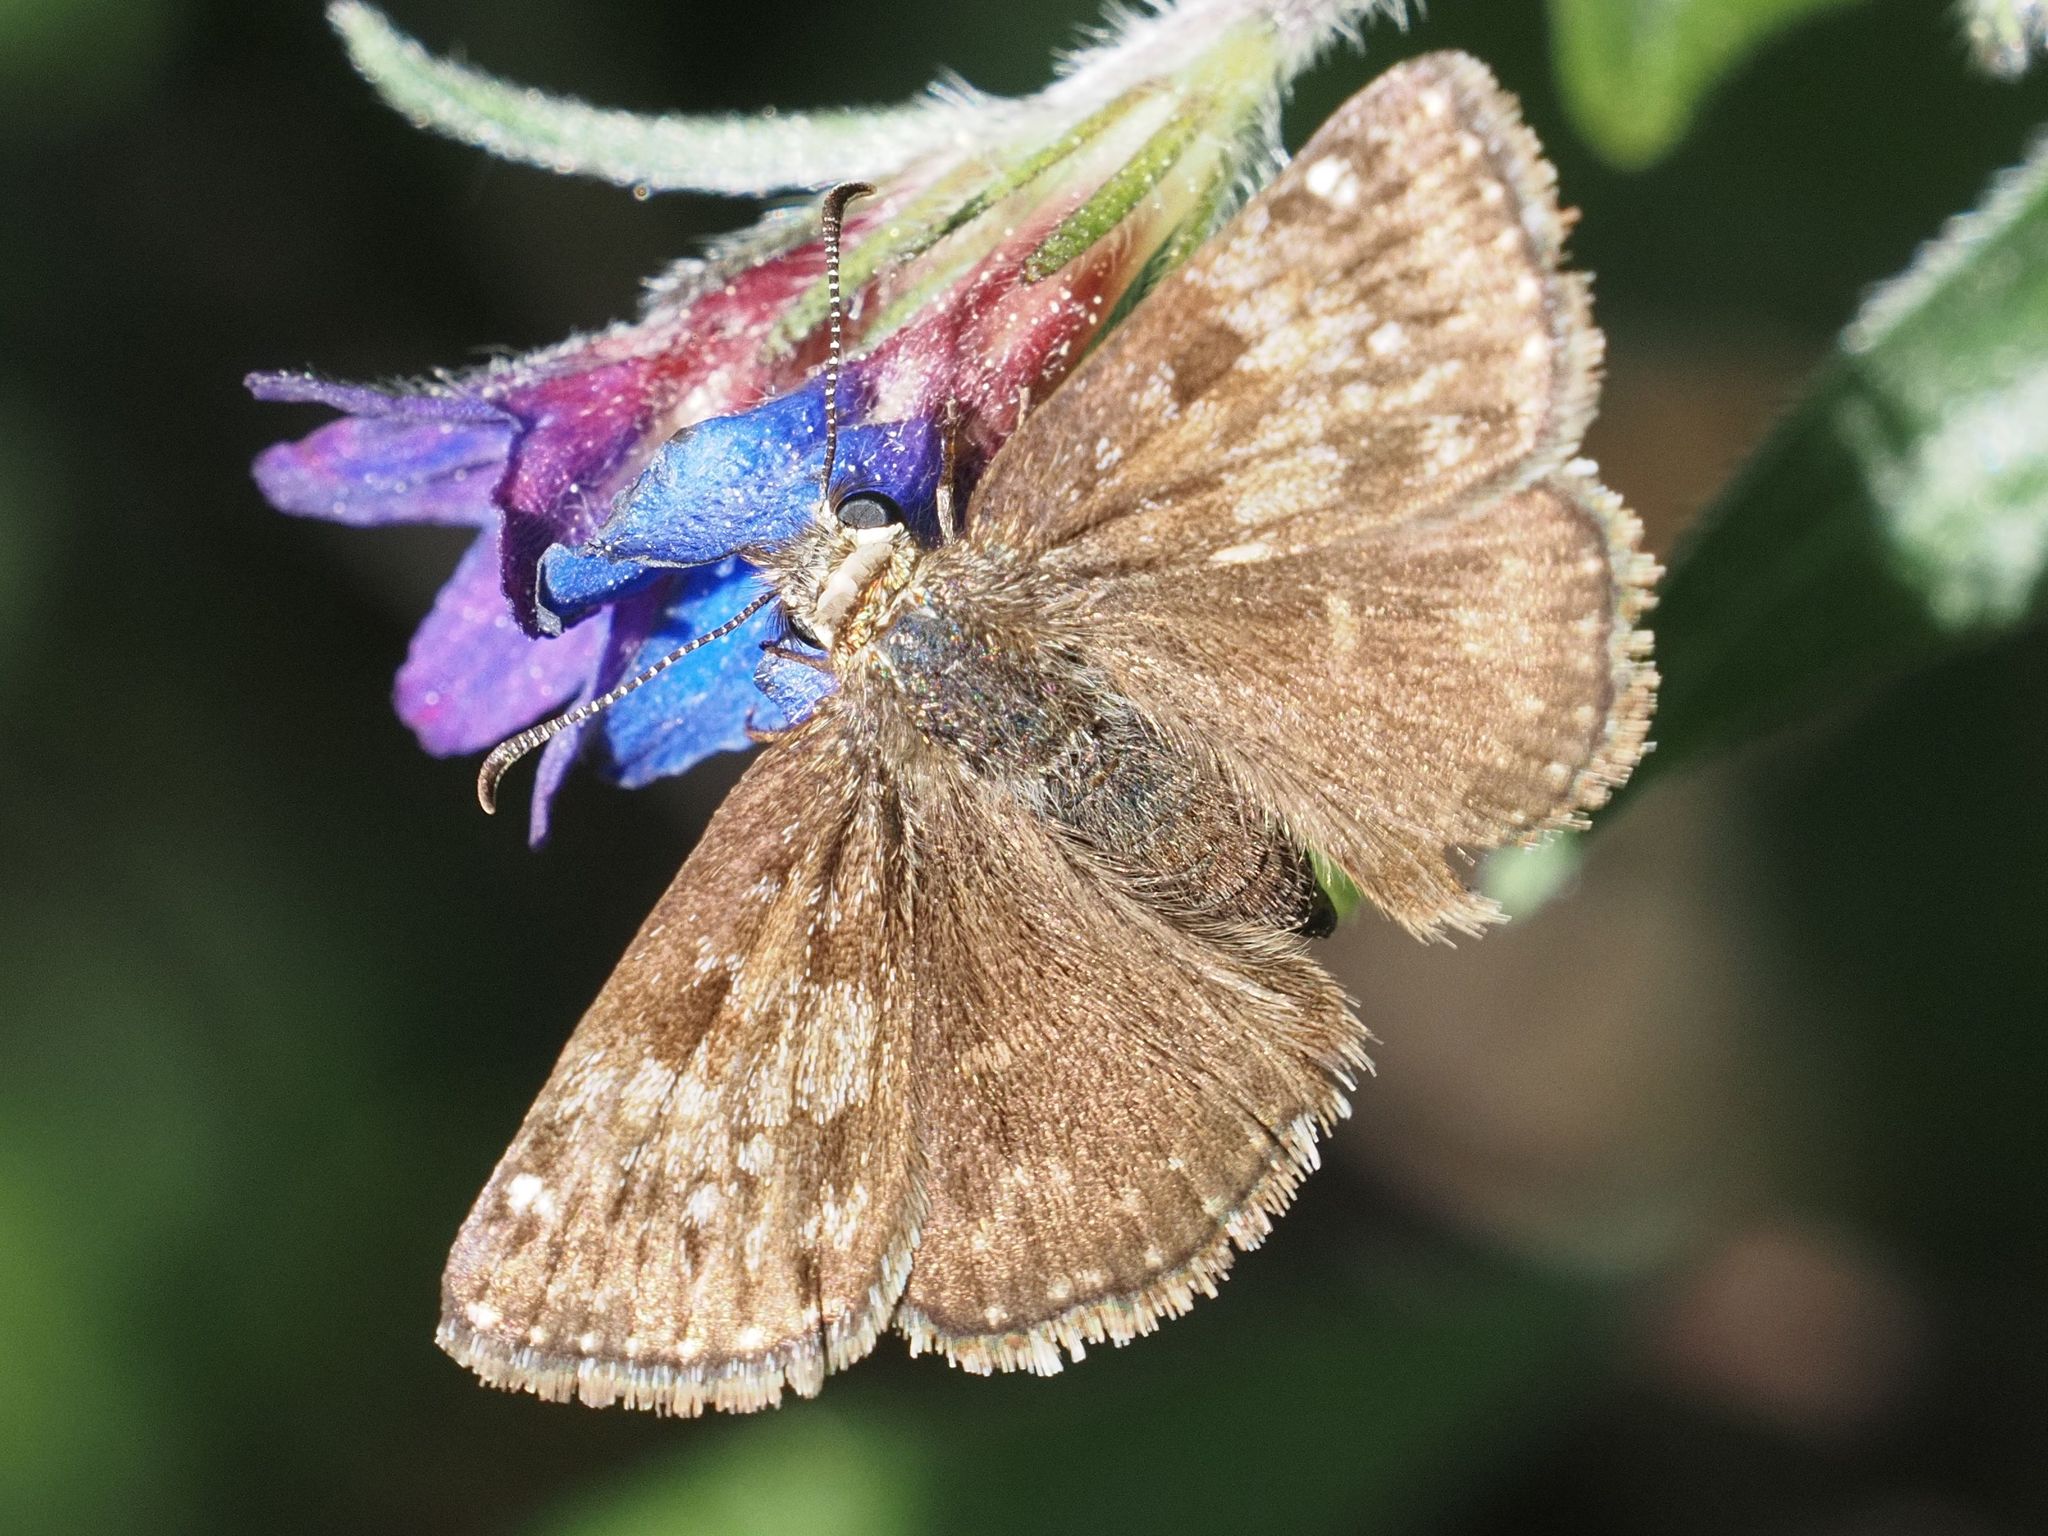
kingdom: Animalia
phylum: Arthropoda
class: Insecta
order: Lepidoptera
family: Hesperiidae
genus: Erynnis
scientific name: Erynnis tages
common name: Dingy skipper
